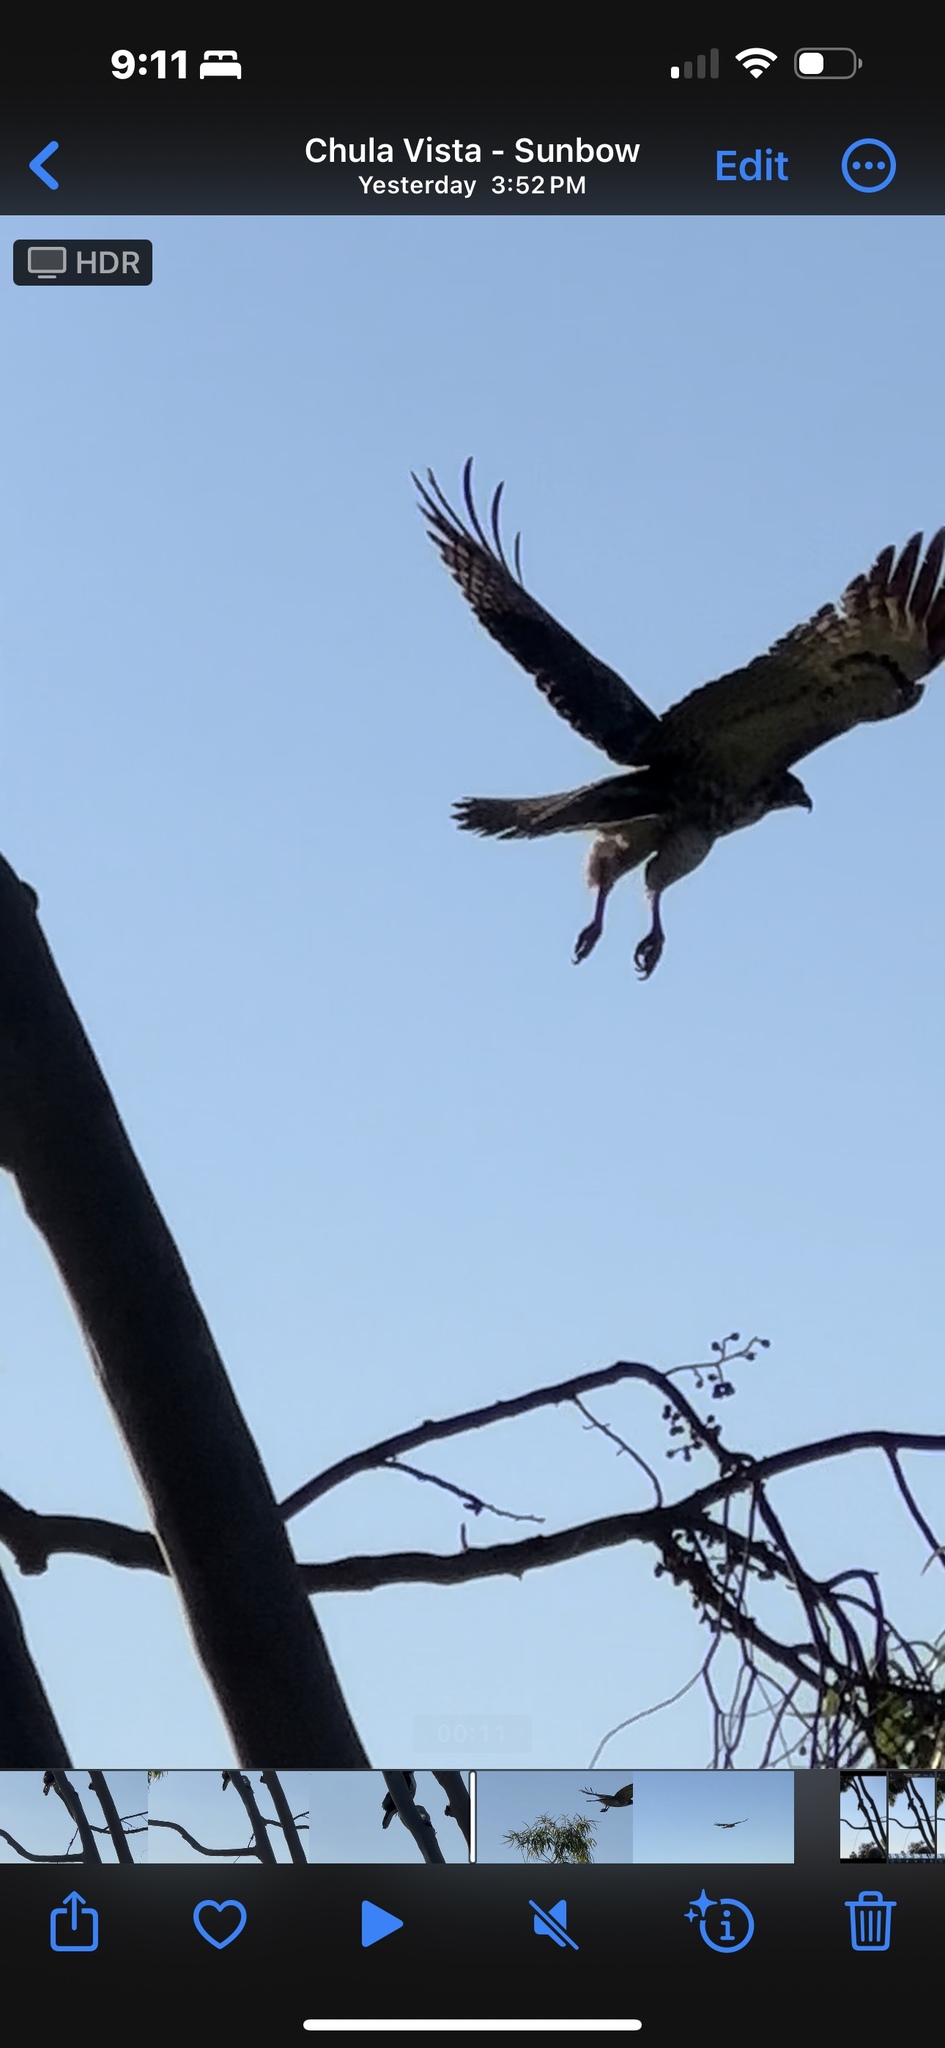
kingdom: Animalia
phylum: Chordata
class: Aves
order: Accipitriformes
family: Accipitridae
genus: Buteo
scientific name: Buteo jamaicensis
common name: Red-tailed hawk
